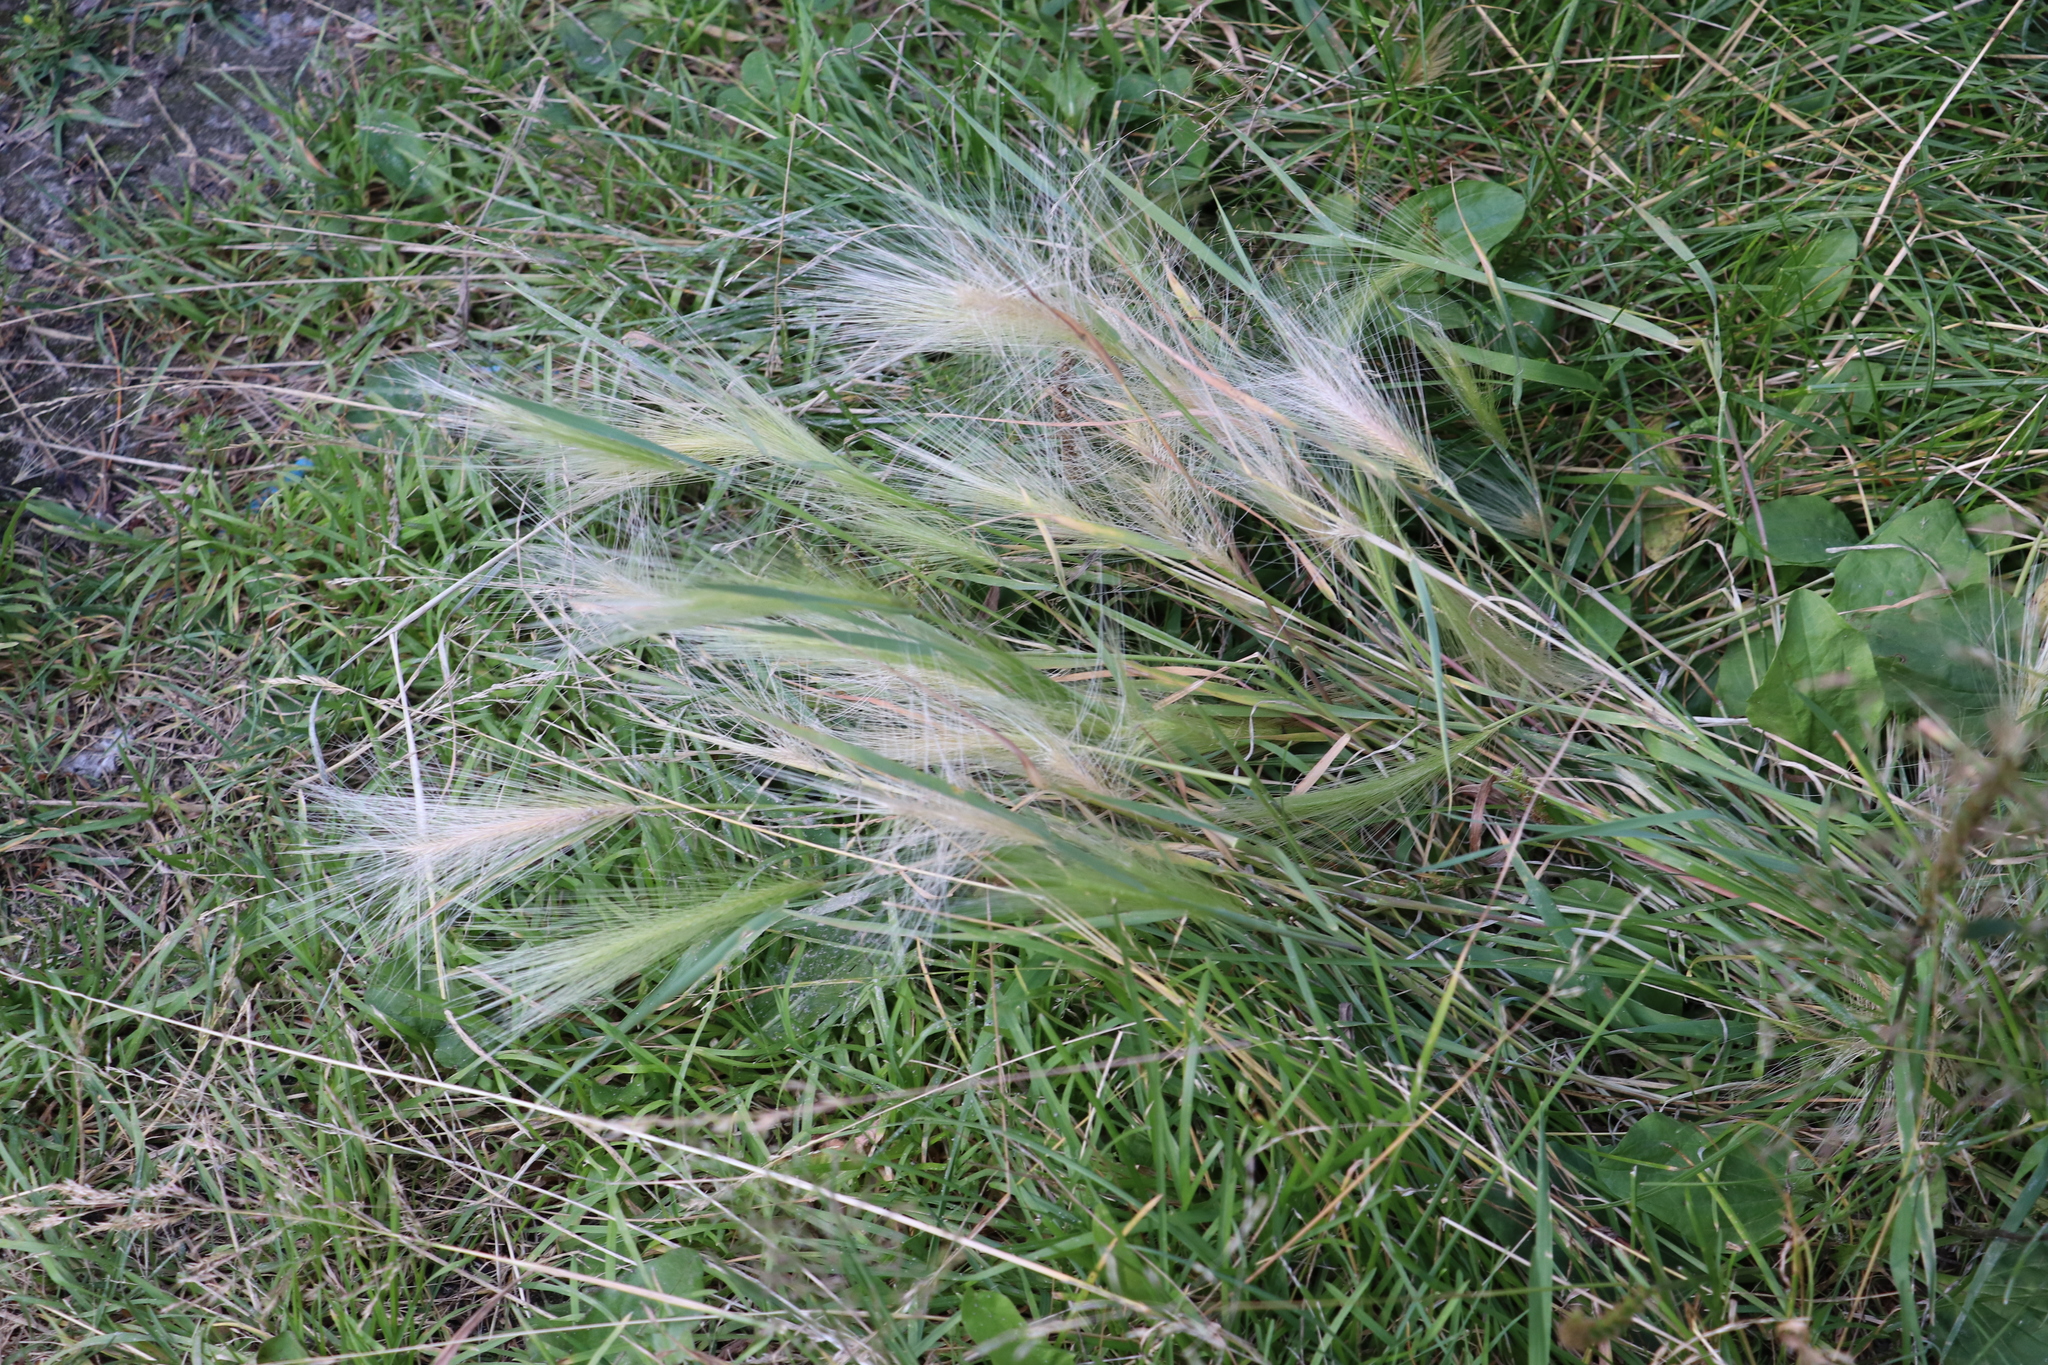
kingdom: Plantae
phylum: Tracheophyta
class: Liliopsida
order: Poales
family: Poaceae
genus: Hordeum
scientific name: Hordeum jubatum
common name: Foxtail barley
